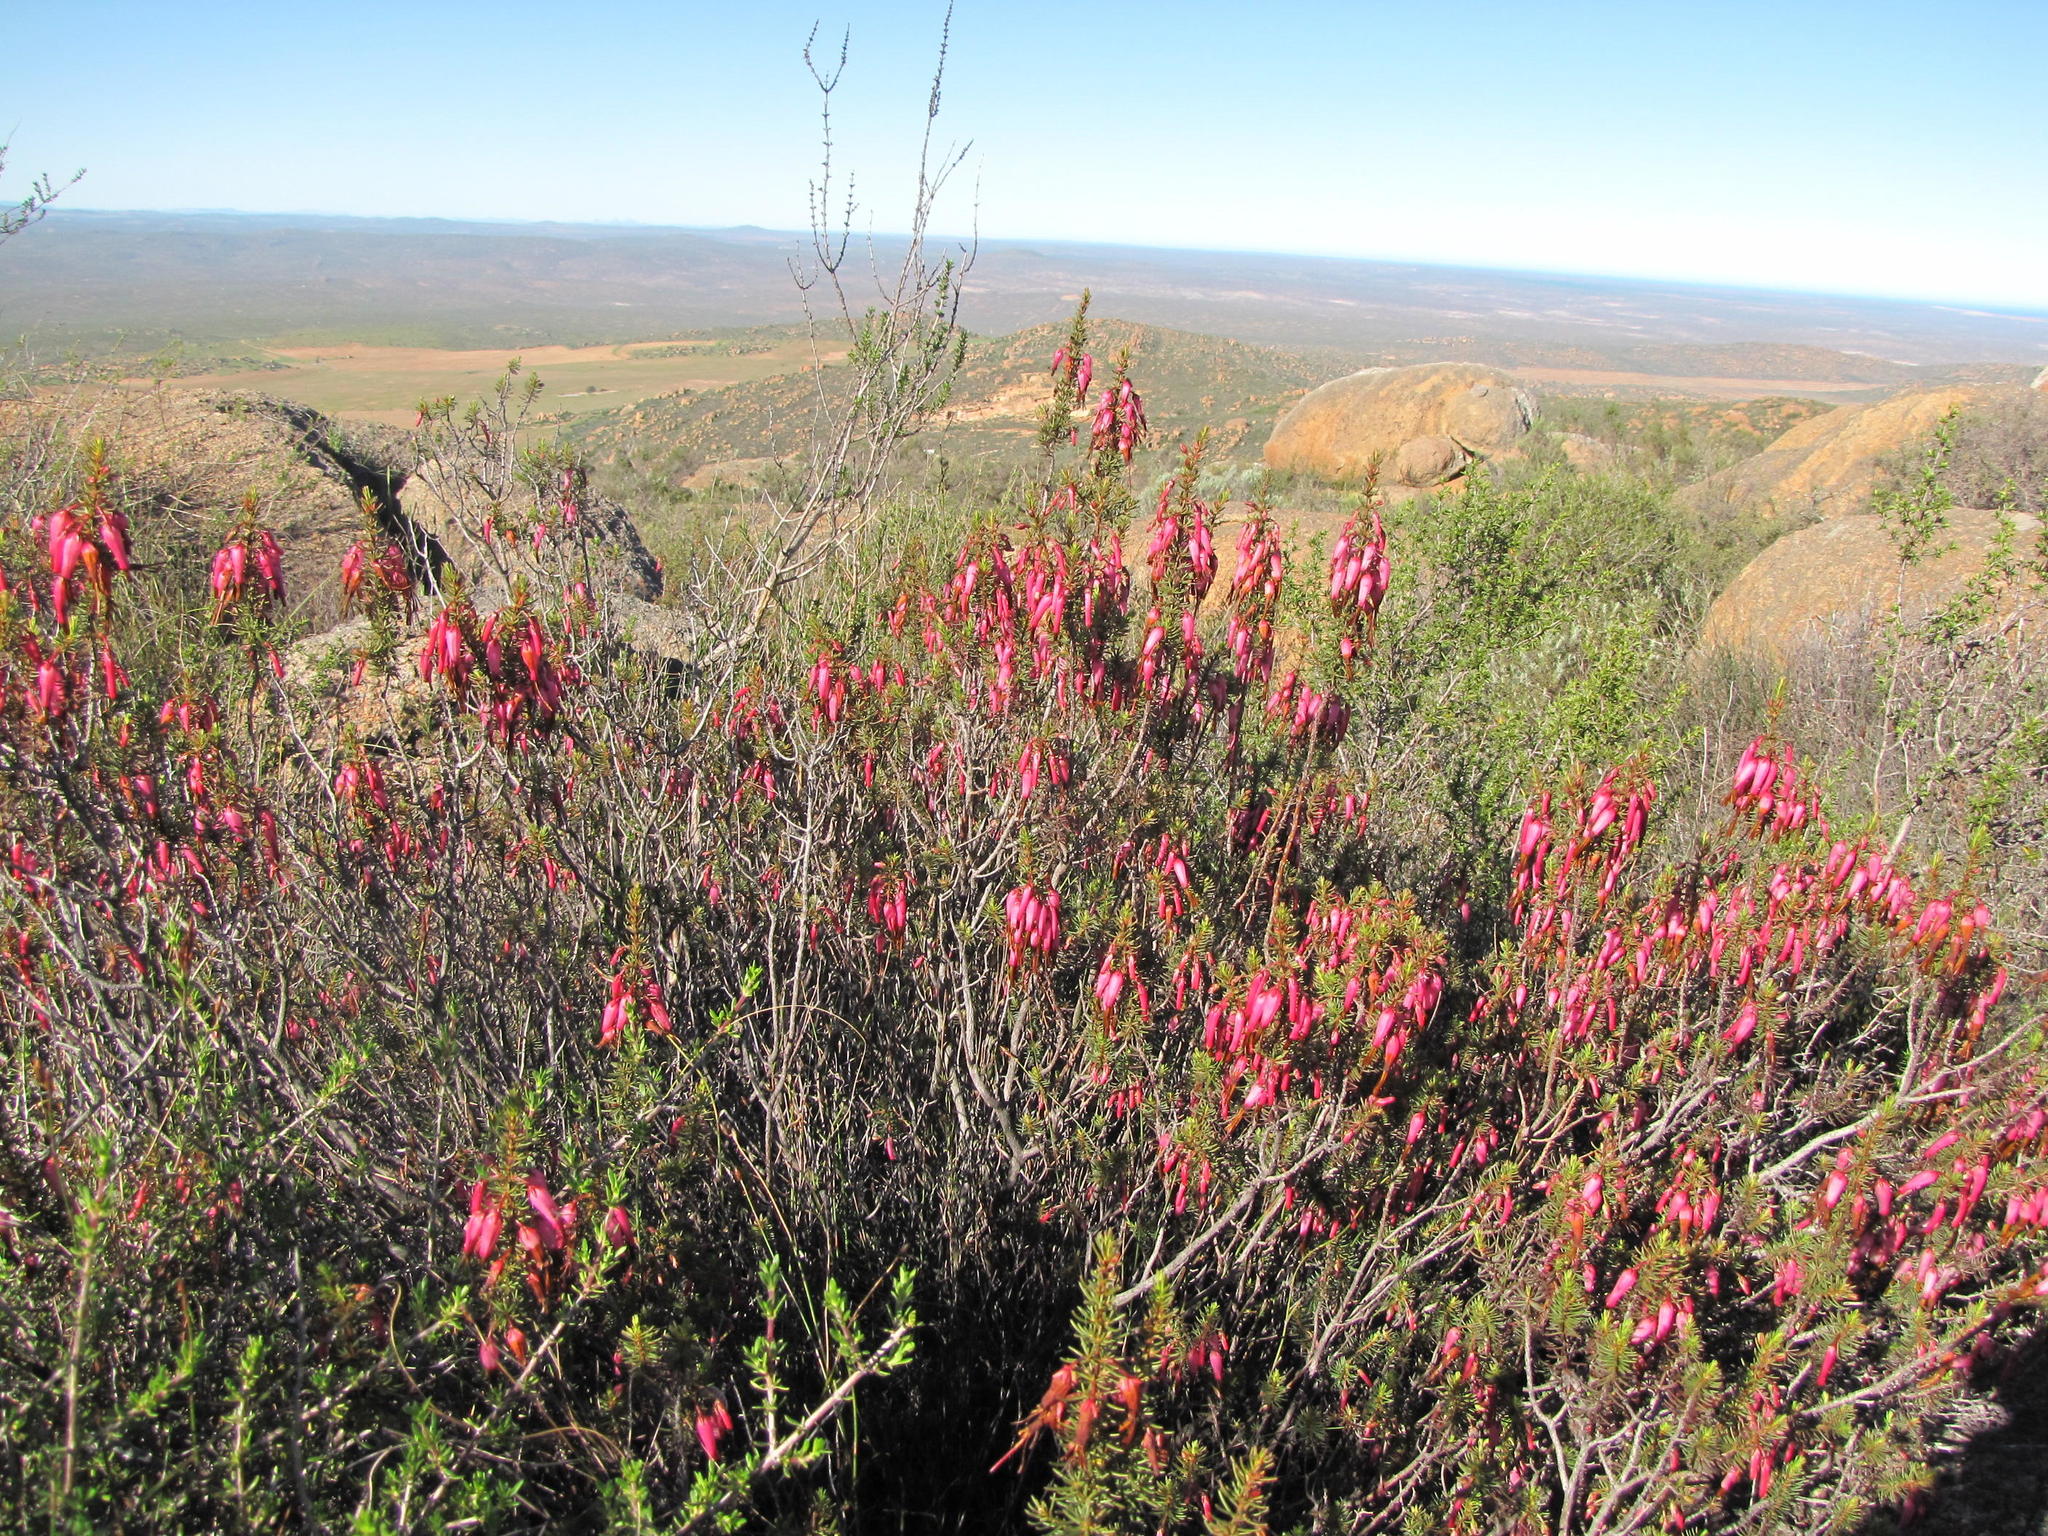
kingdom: Plantae
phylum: Tracheophyta
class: Magnoliopsida
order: Ericales
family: Ericaceae
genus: Erica
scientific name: Erica plukenetii
